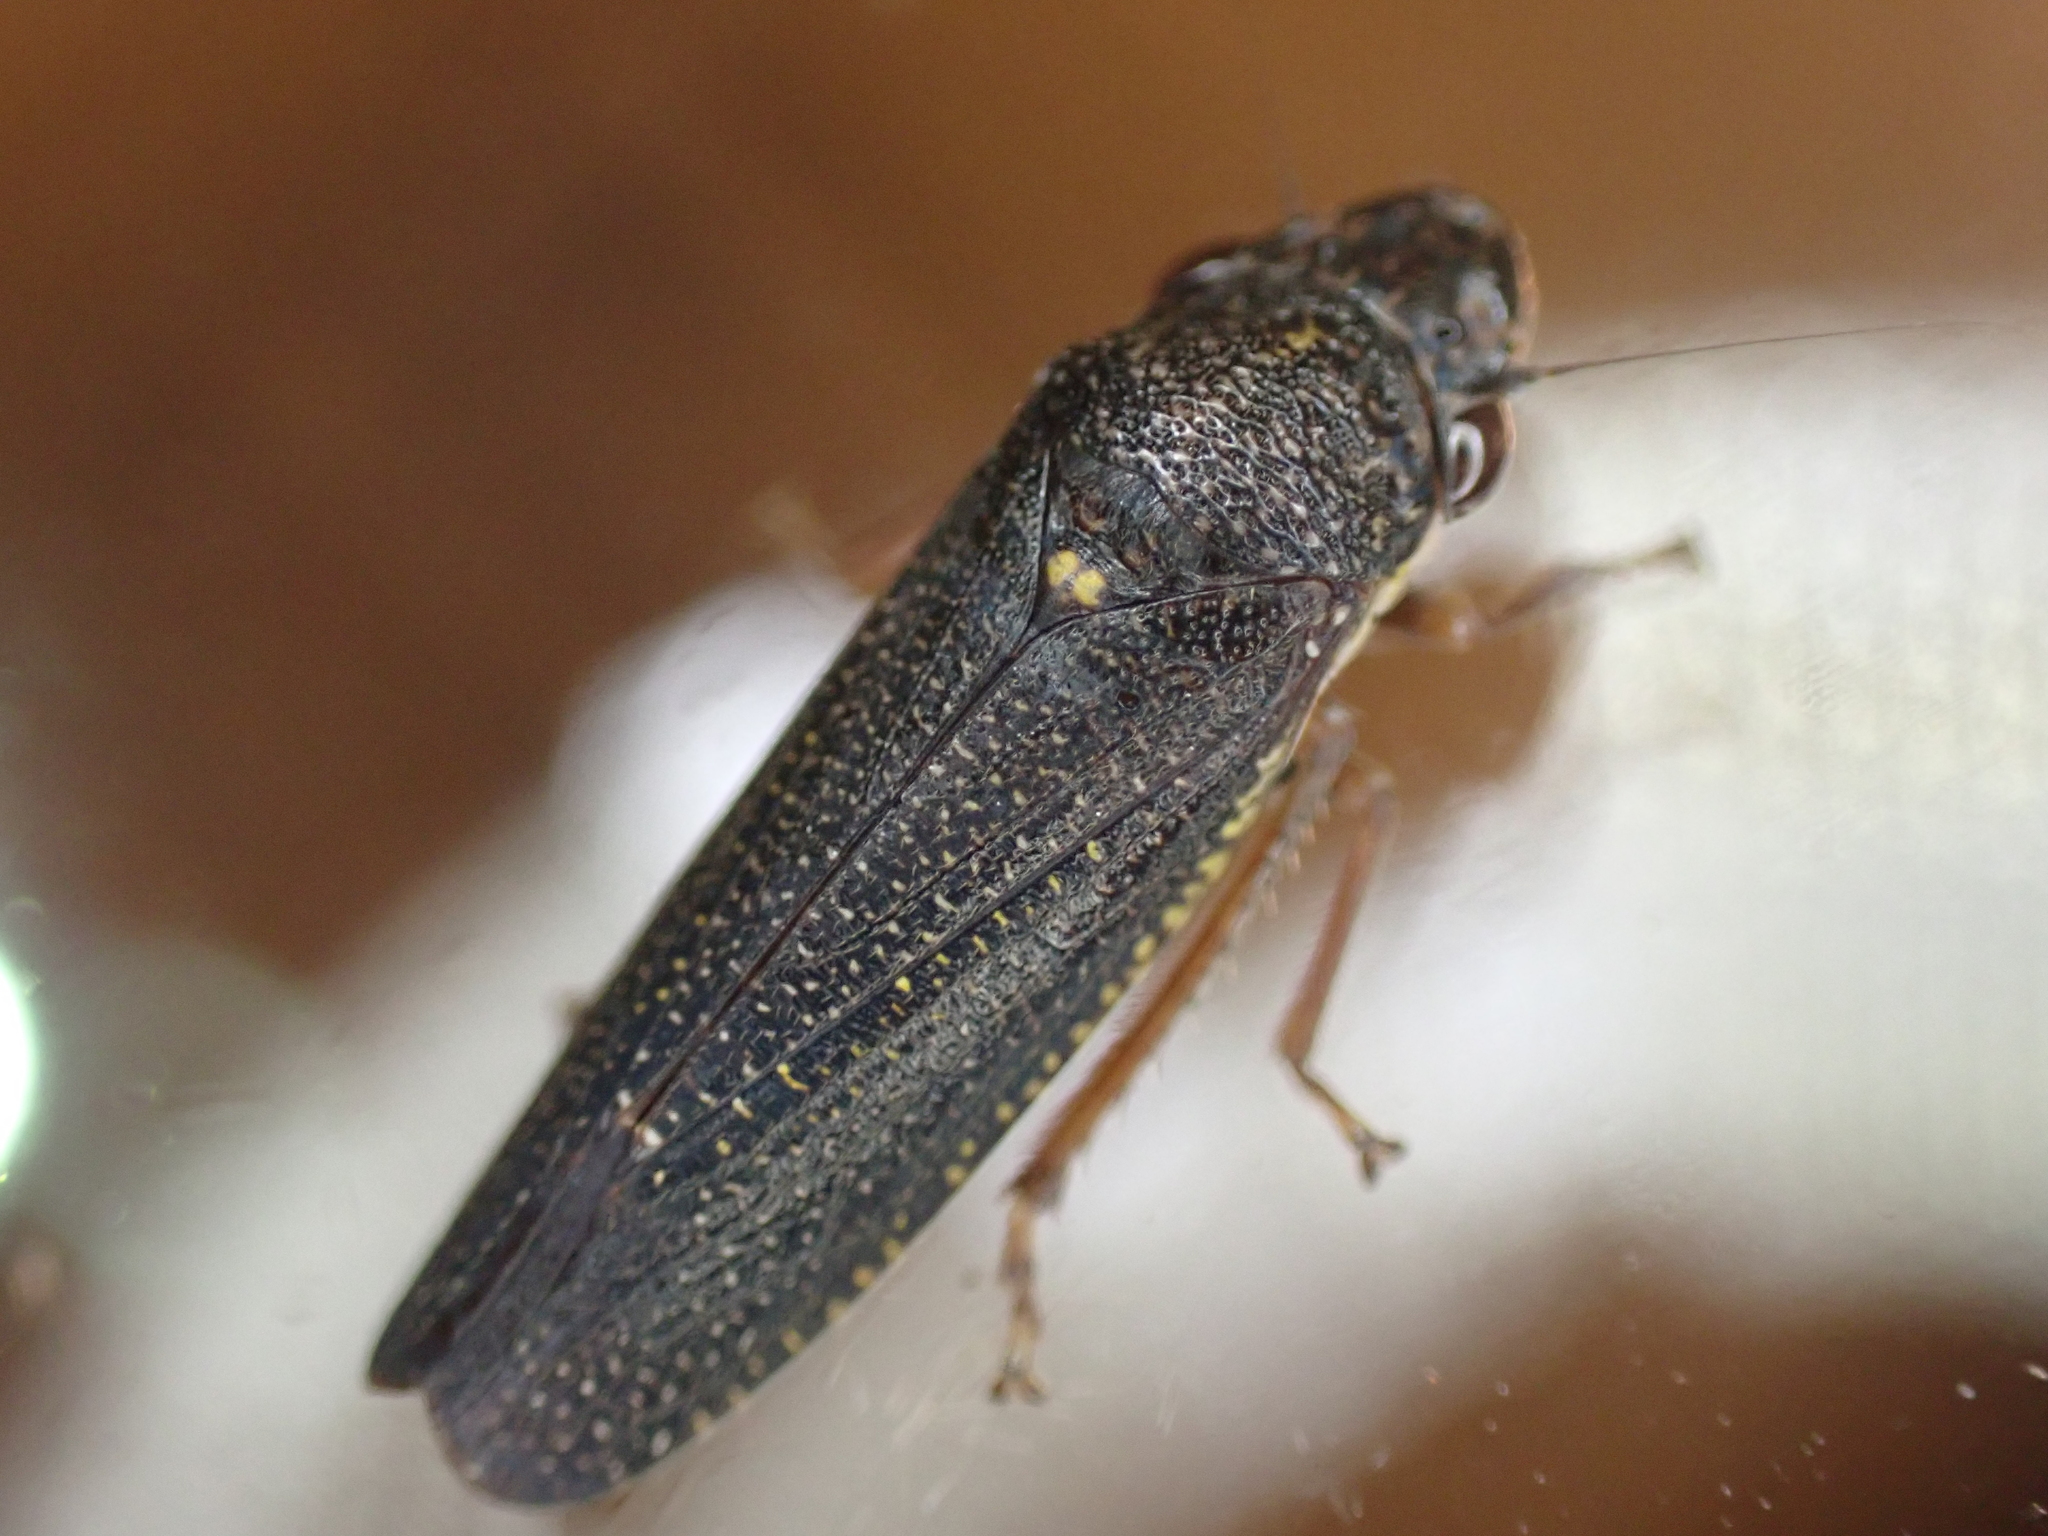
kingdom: Animalia
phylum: Arthropoda
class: Insecta
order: Hemiptera
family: Cicadellidae
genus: Paraulacizes
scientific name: Paraulacizes irrorata
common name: Speckled sharpshooter
